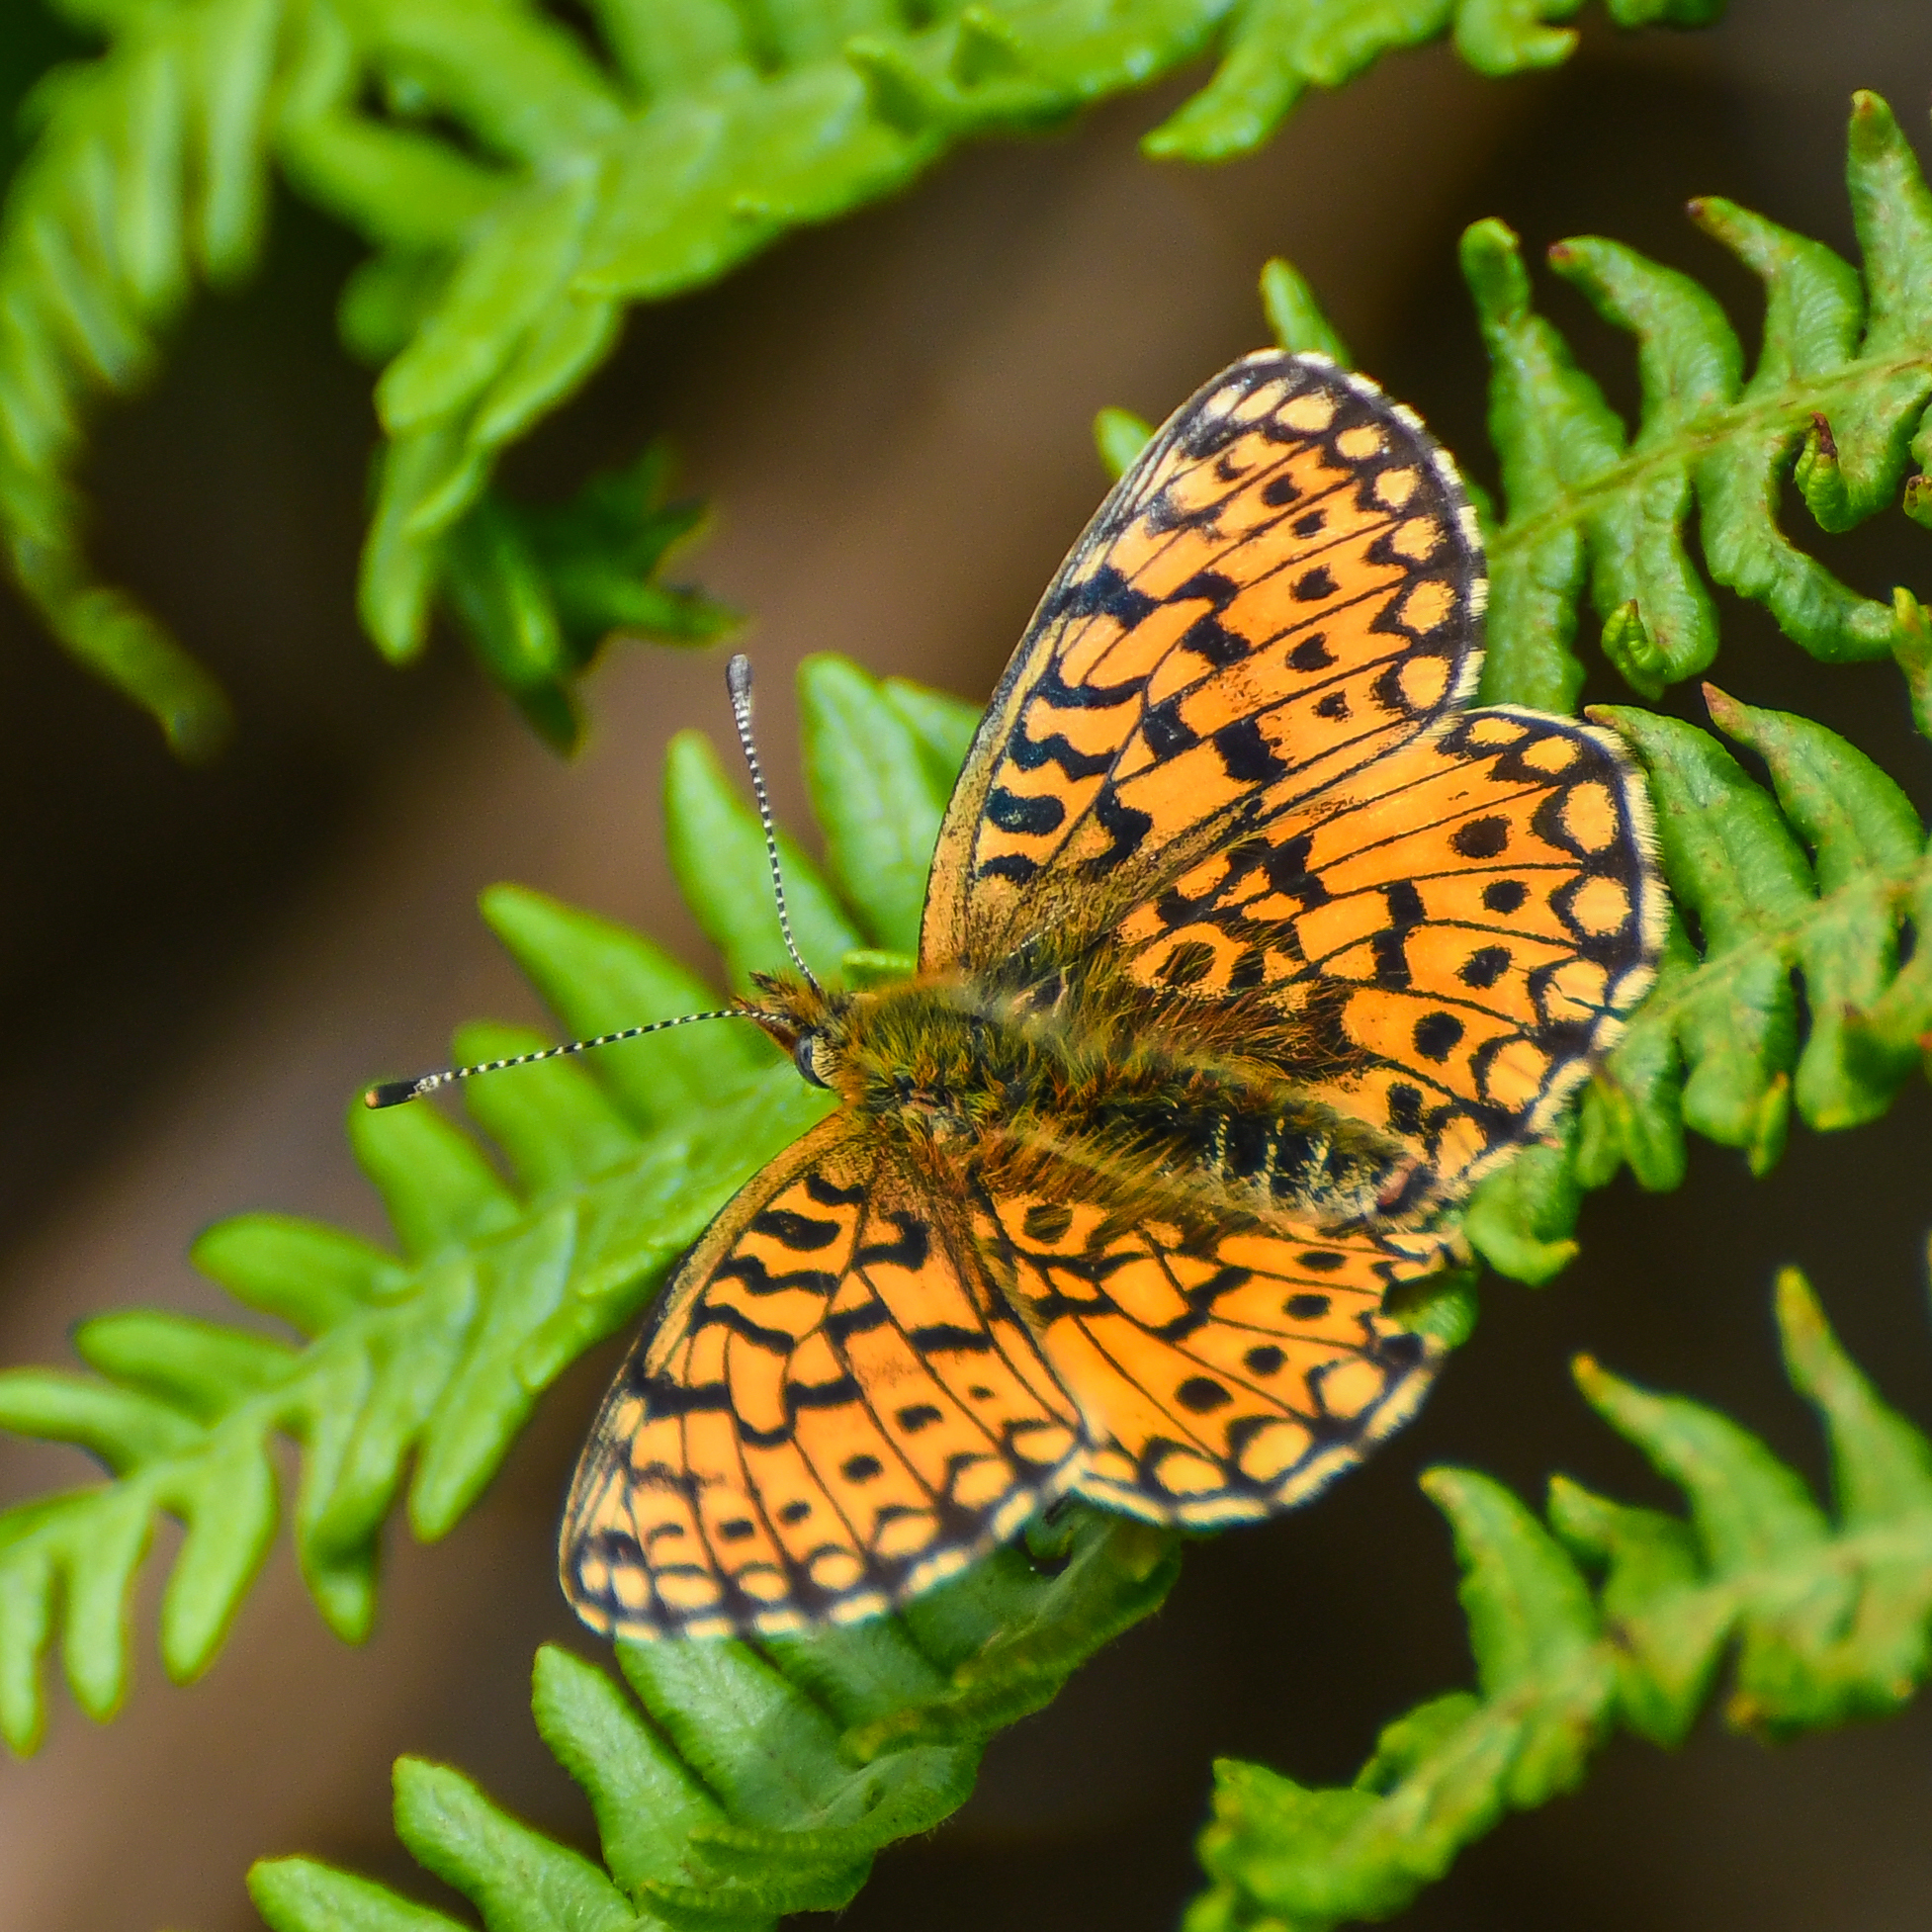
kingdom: Animalia
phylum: Arthropoda
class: Insecta
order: Lepidoptera
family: Nymphalidae
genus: Boloria
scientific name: Boloria selene
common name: Small pearl-bordered fritillary
